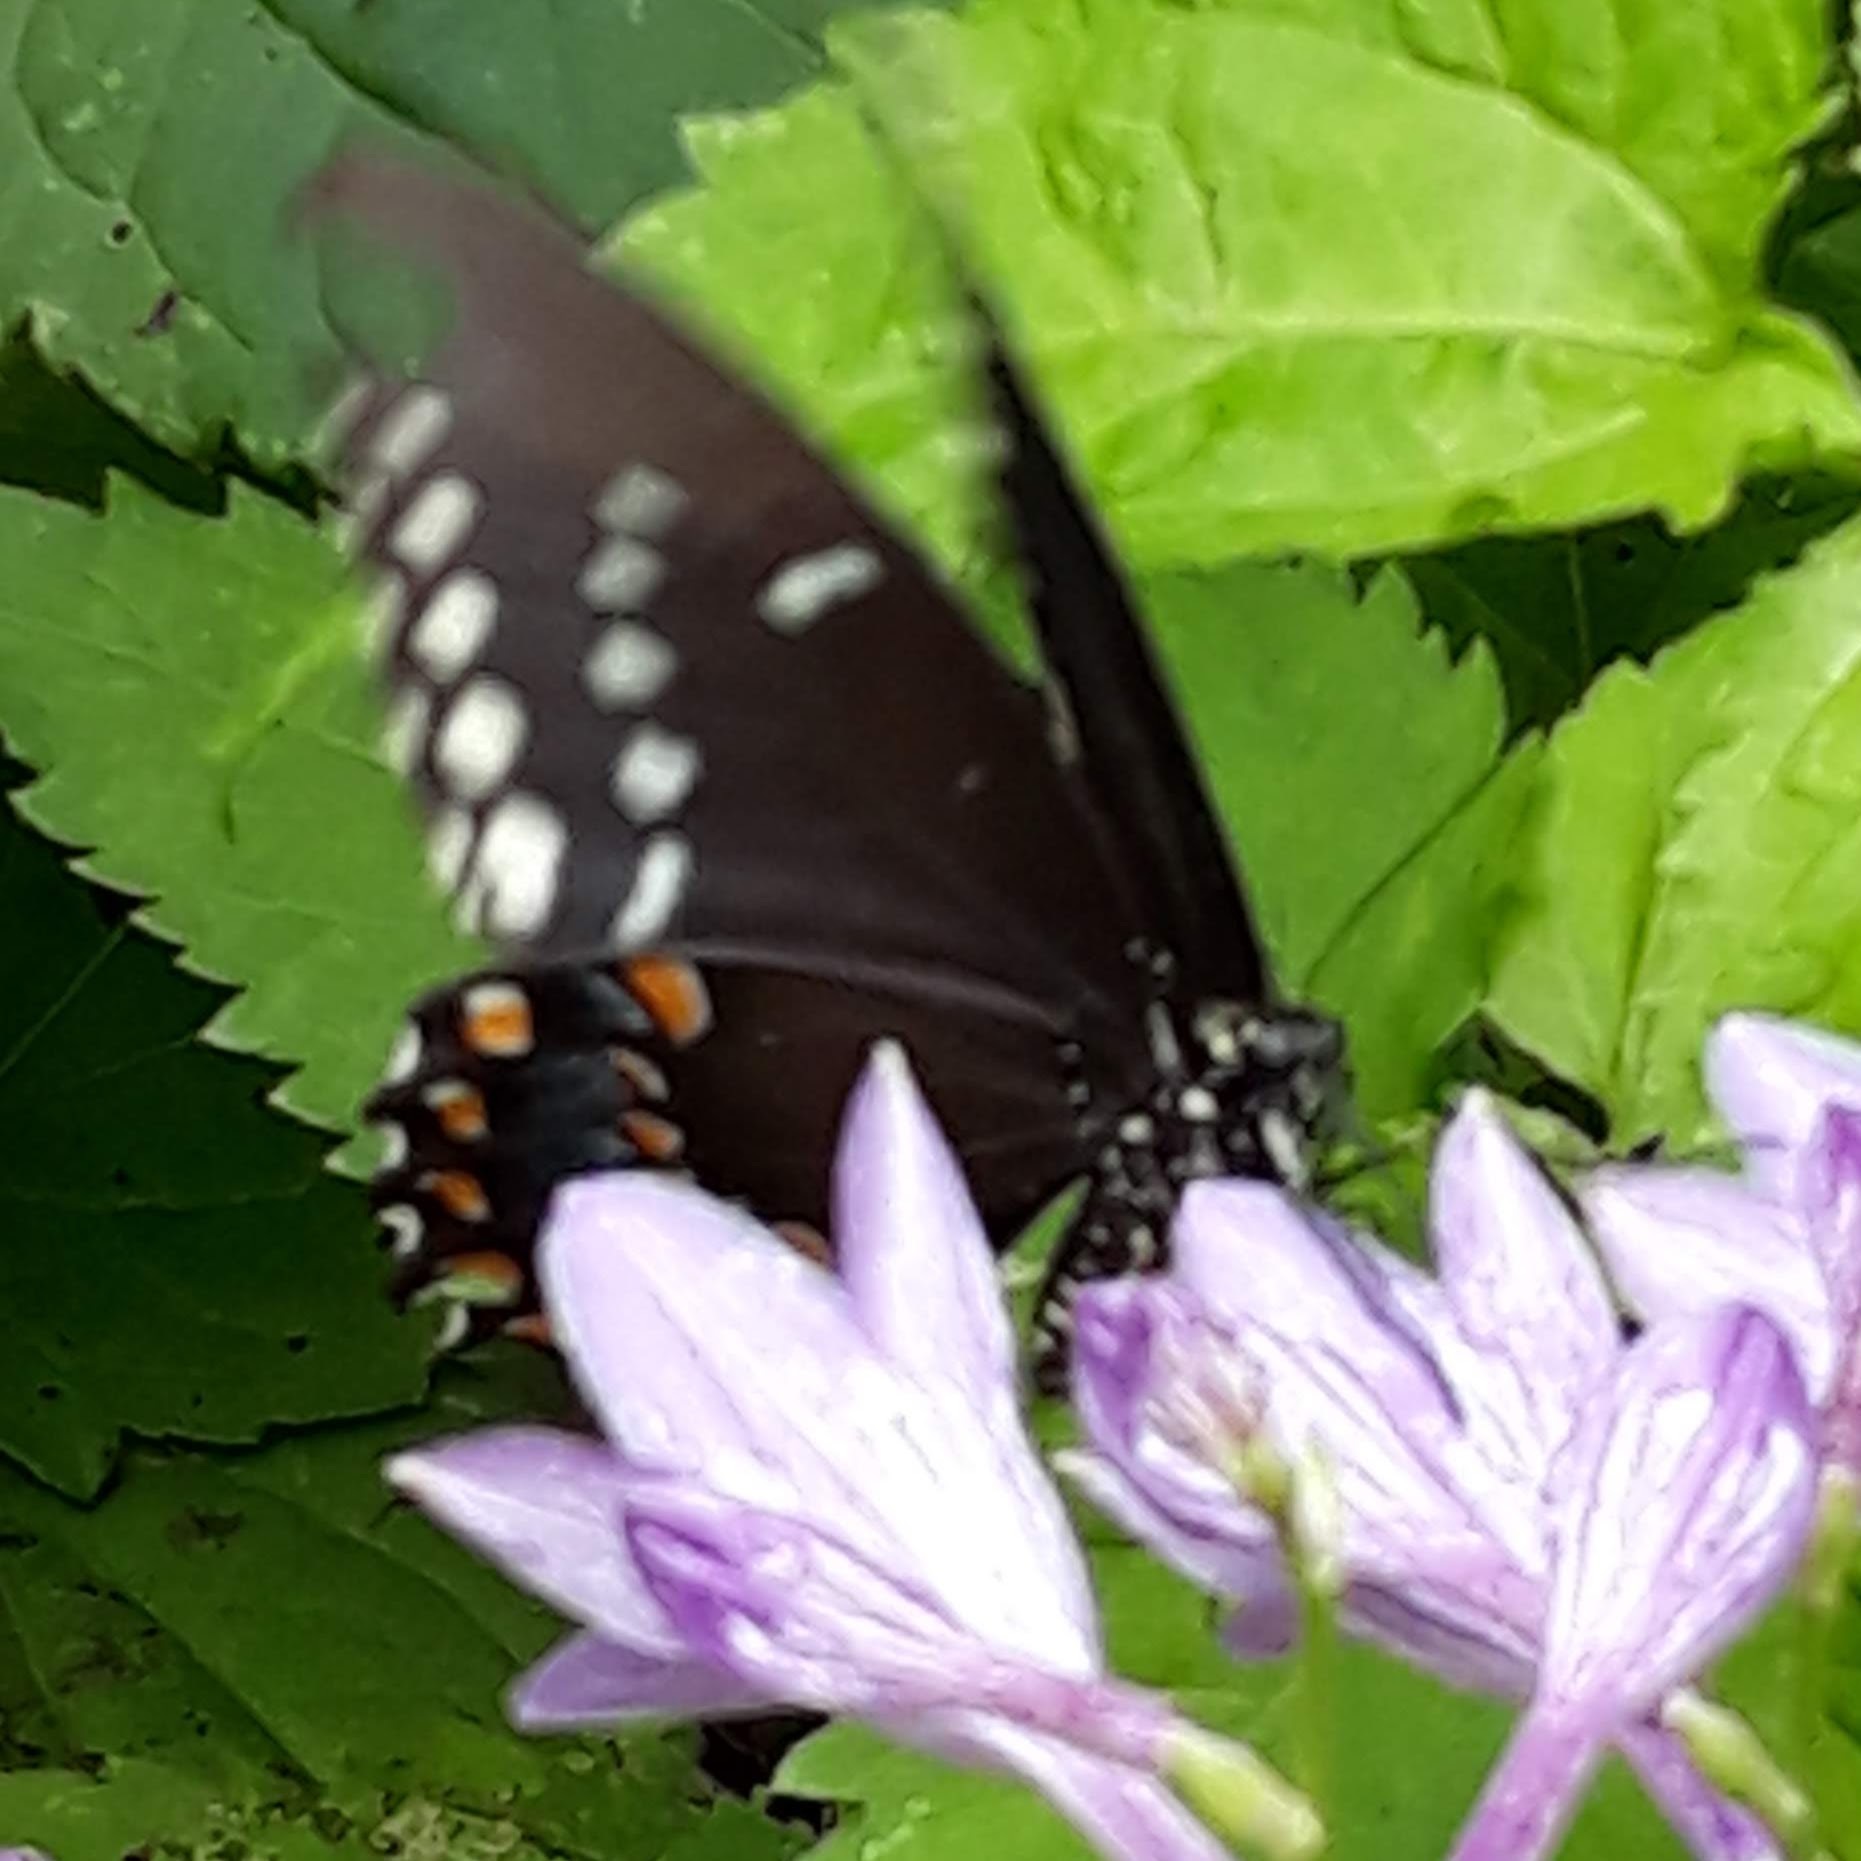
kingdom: Animalia
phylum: Arthropoda
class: Insecta
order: Lepidoptera
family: Papilionidae
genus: Papilio
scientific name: Papilio troilus
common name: Spicebush swallowtail
